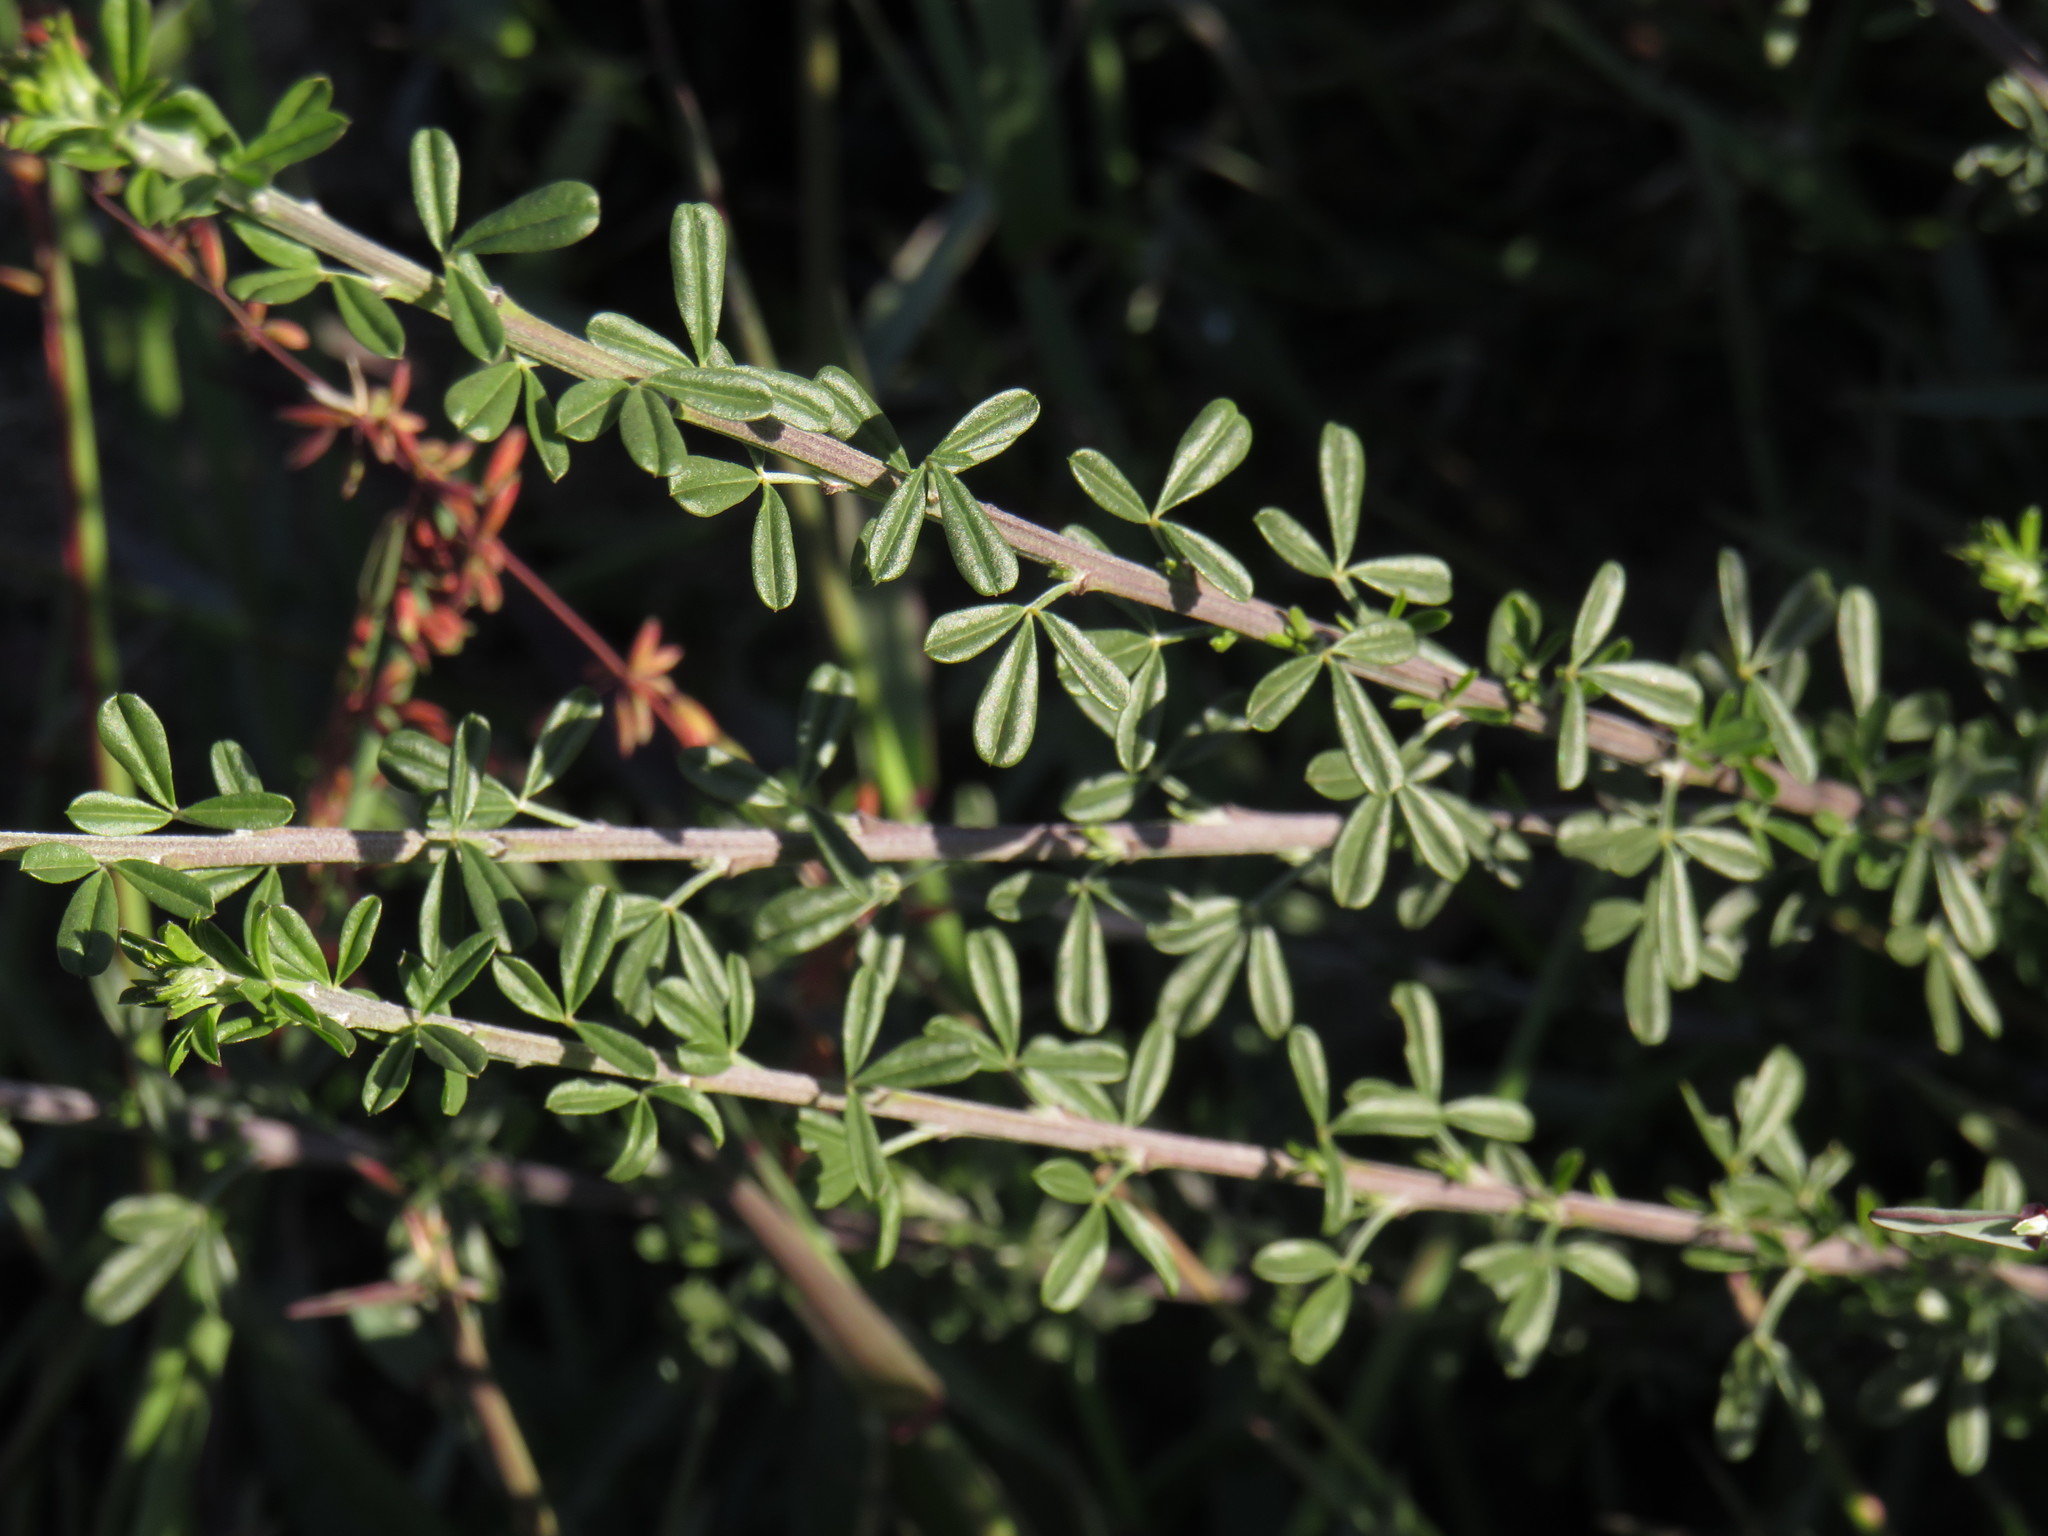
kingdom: Plantae
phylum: Tracheophyta
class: Magnoliopsida
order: Fabales
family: Fabaceae
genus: Wiborgia
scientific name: Wiborgia obcordata
